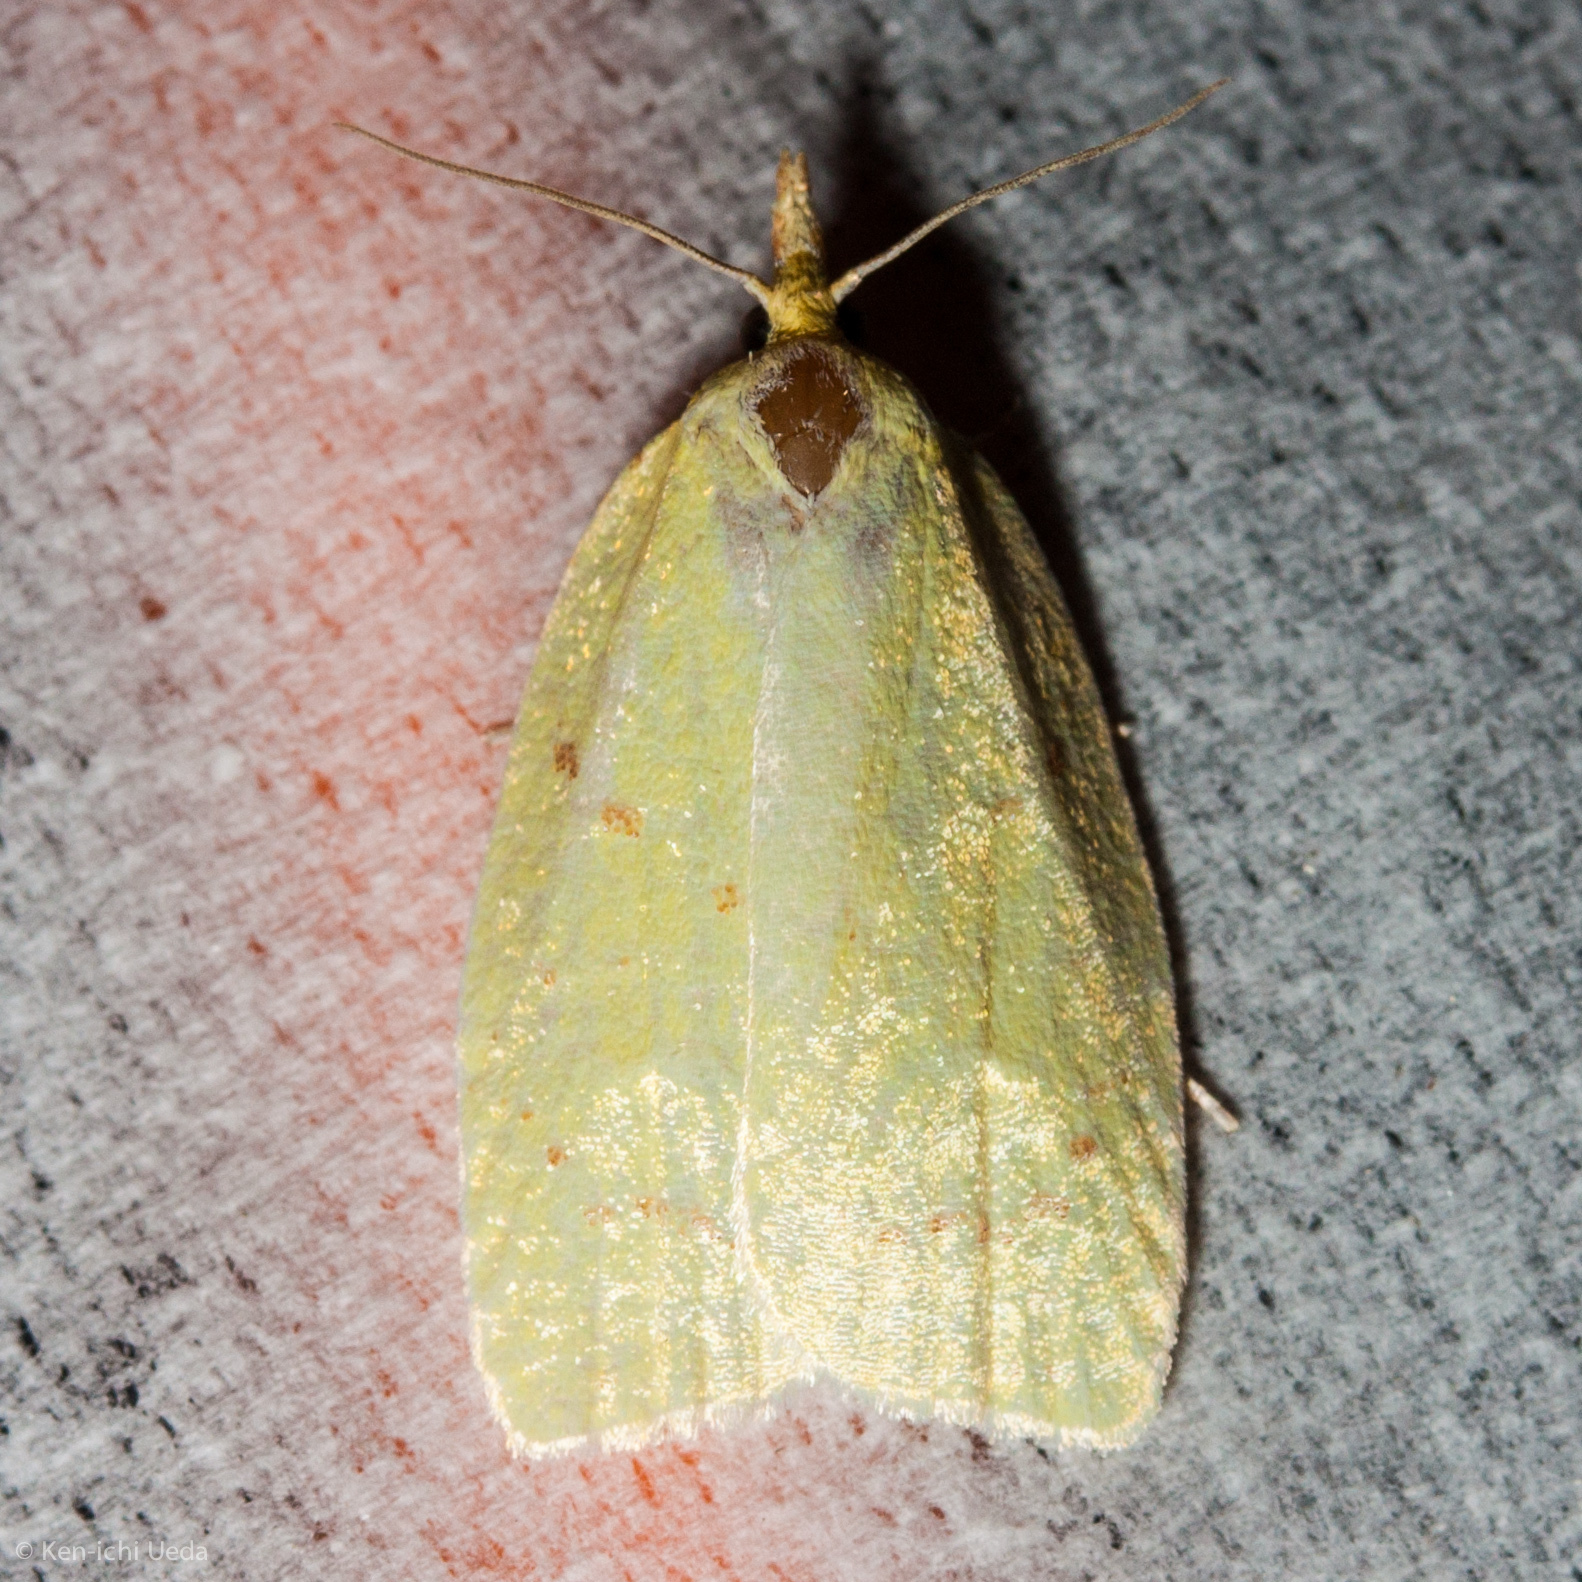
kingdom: Animalia
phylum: Arthropoda
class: Insecta
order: Lepidoptera
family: Tortricidae
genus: Acleris
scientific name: Acleris semipurpurana
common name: Oak leaftier moth
